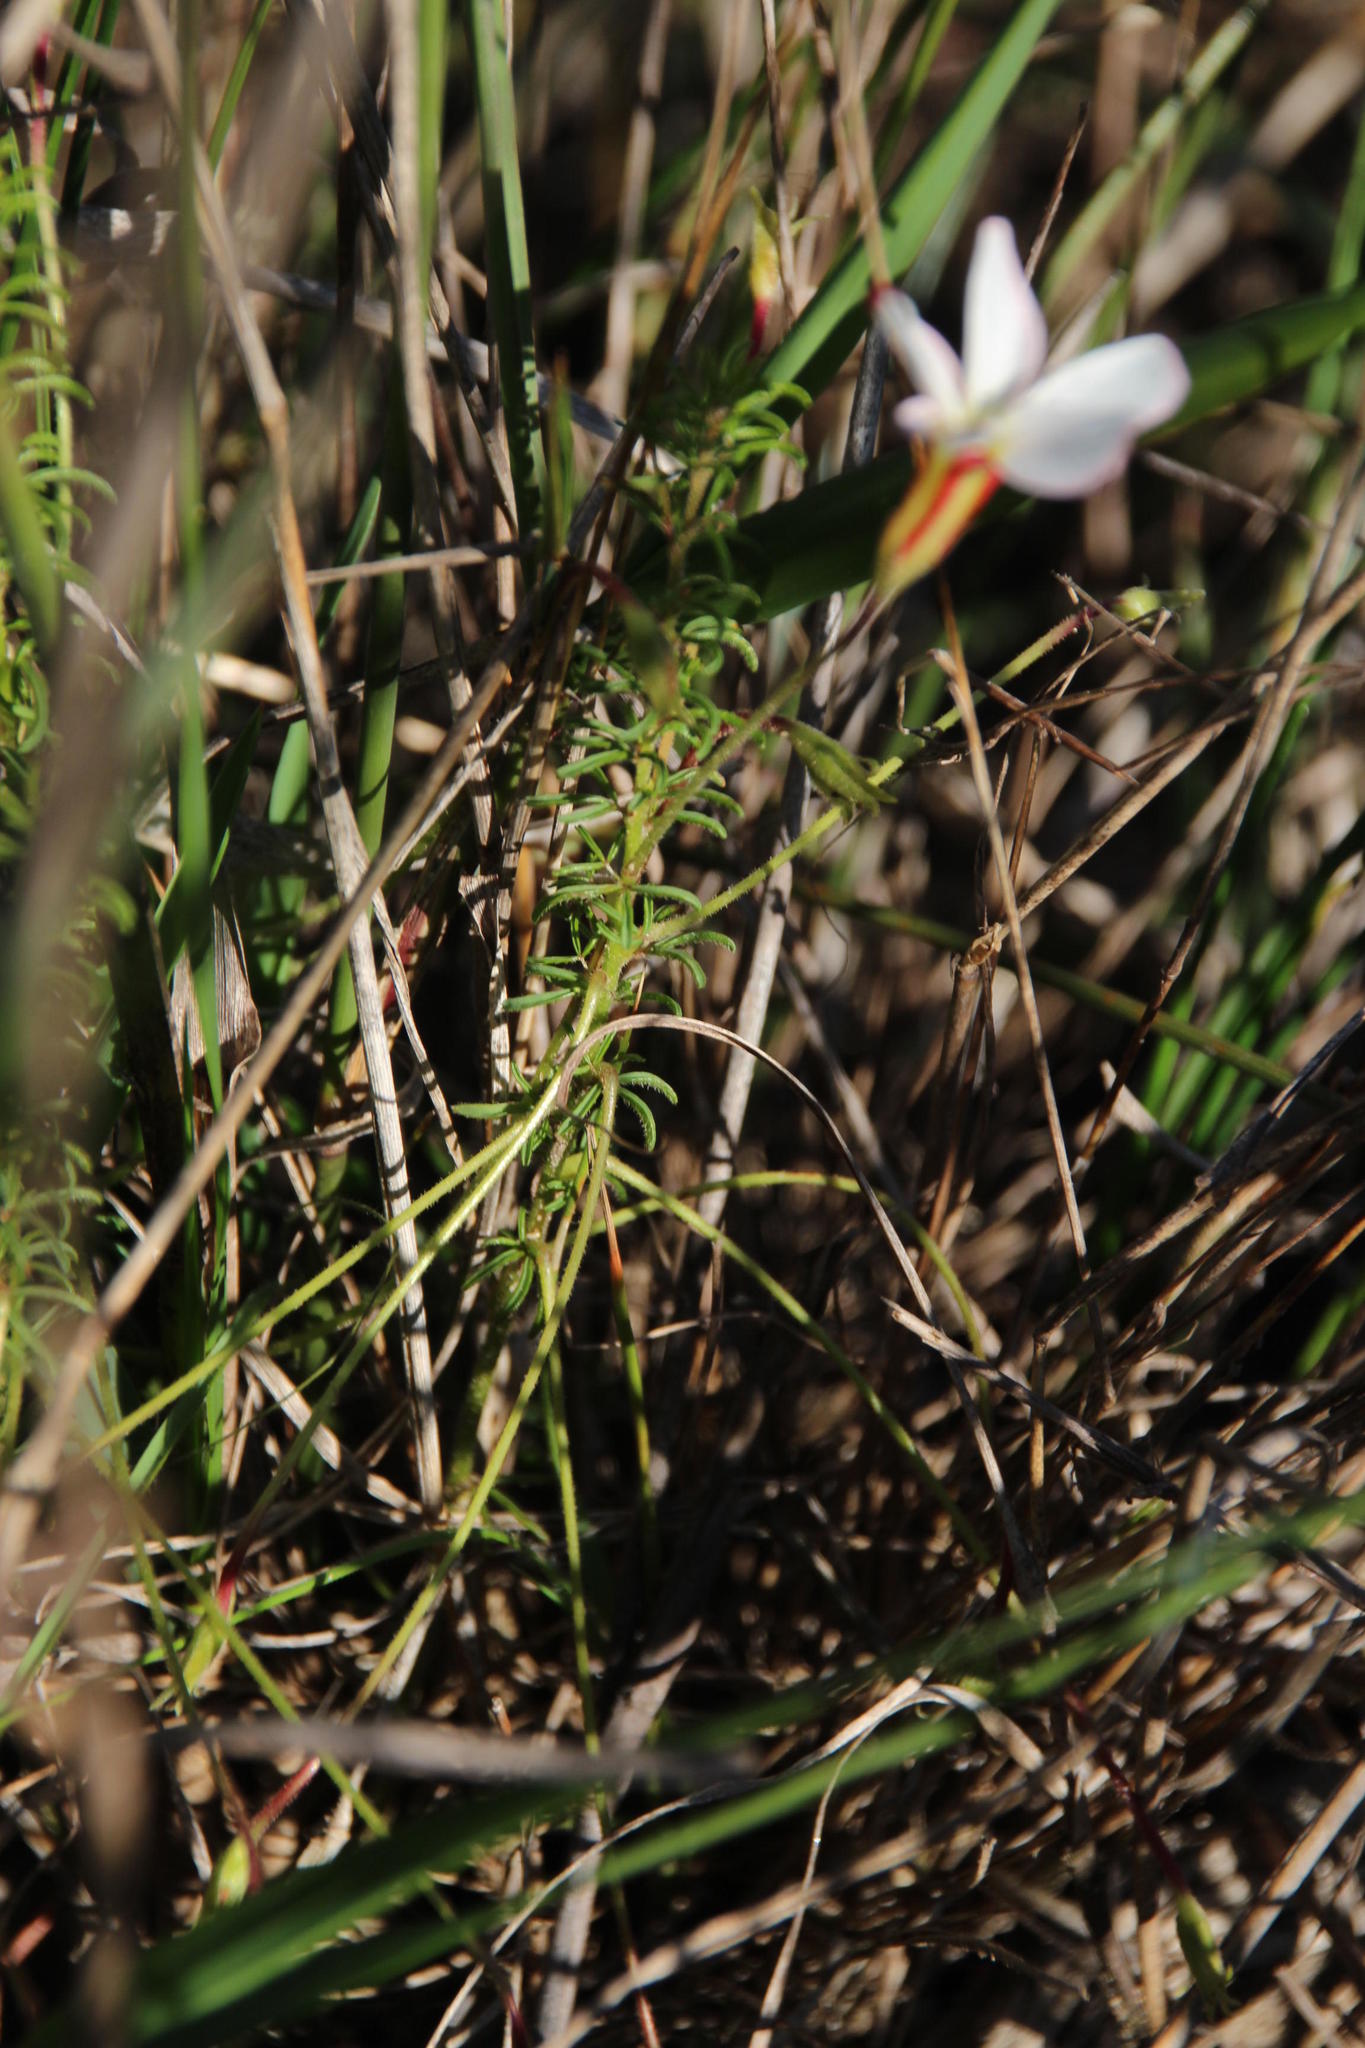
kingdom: Plantae
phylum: Tracheophyta
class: Magnoliopsida
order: Oxalidales
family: Oxalidaceae
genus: Oxalis
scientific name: Oxalis tenuifolia
